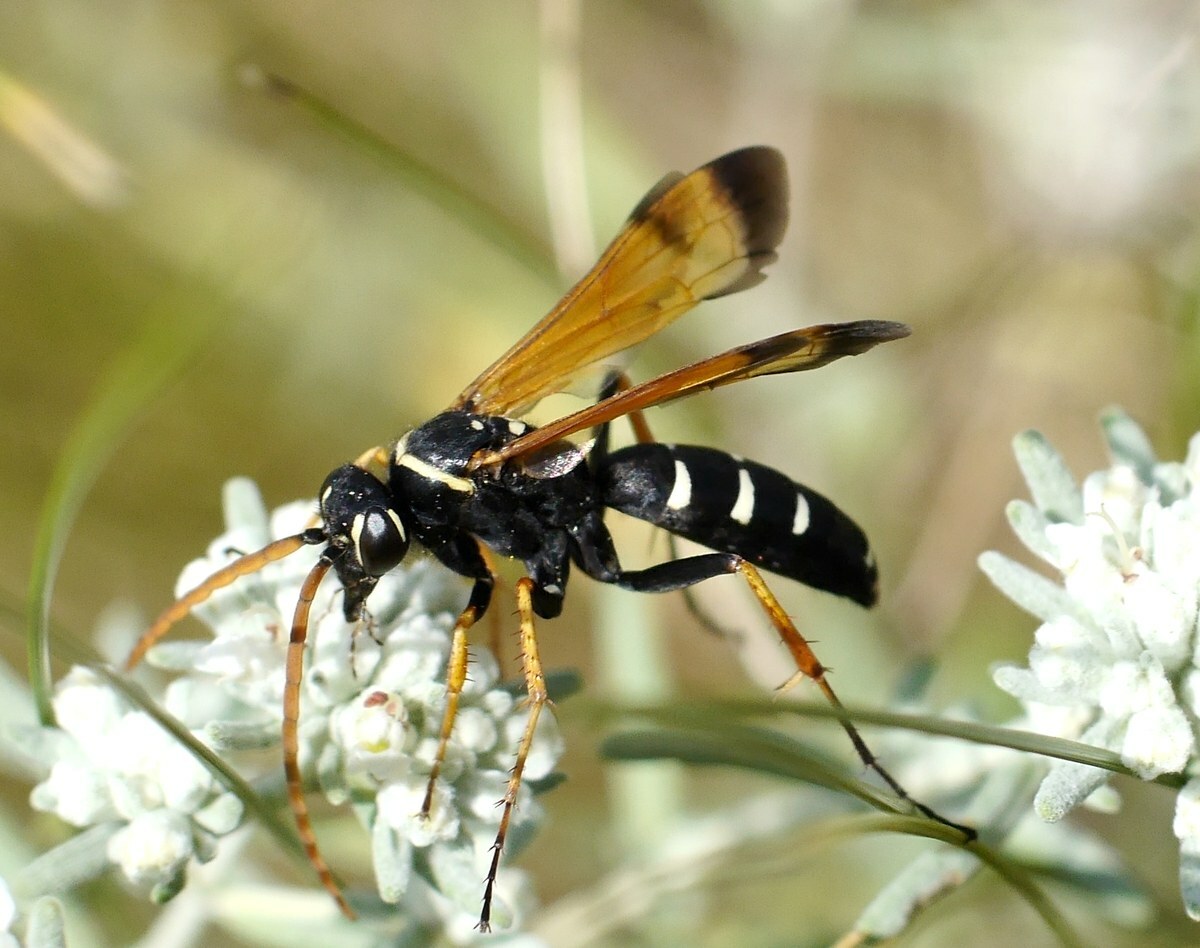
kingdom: Animalia
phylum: Arthropoda
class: Insecta
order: Hymenoptera
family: Pompilidae
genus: Parabatozonus
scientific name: Parabatozonus lacerticida
